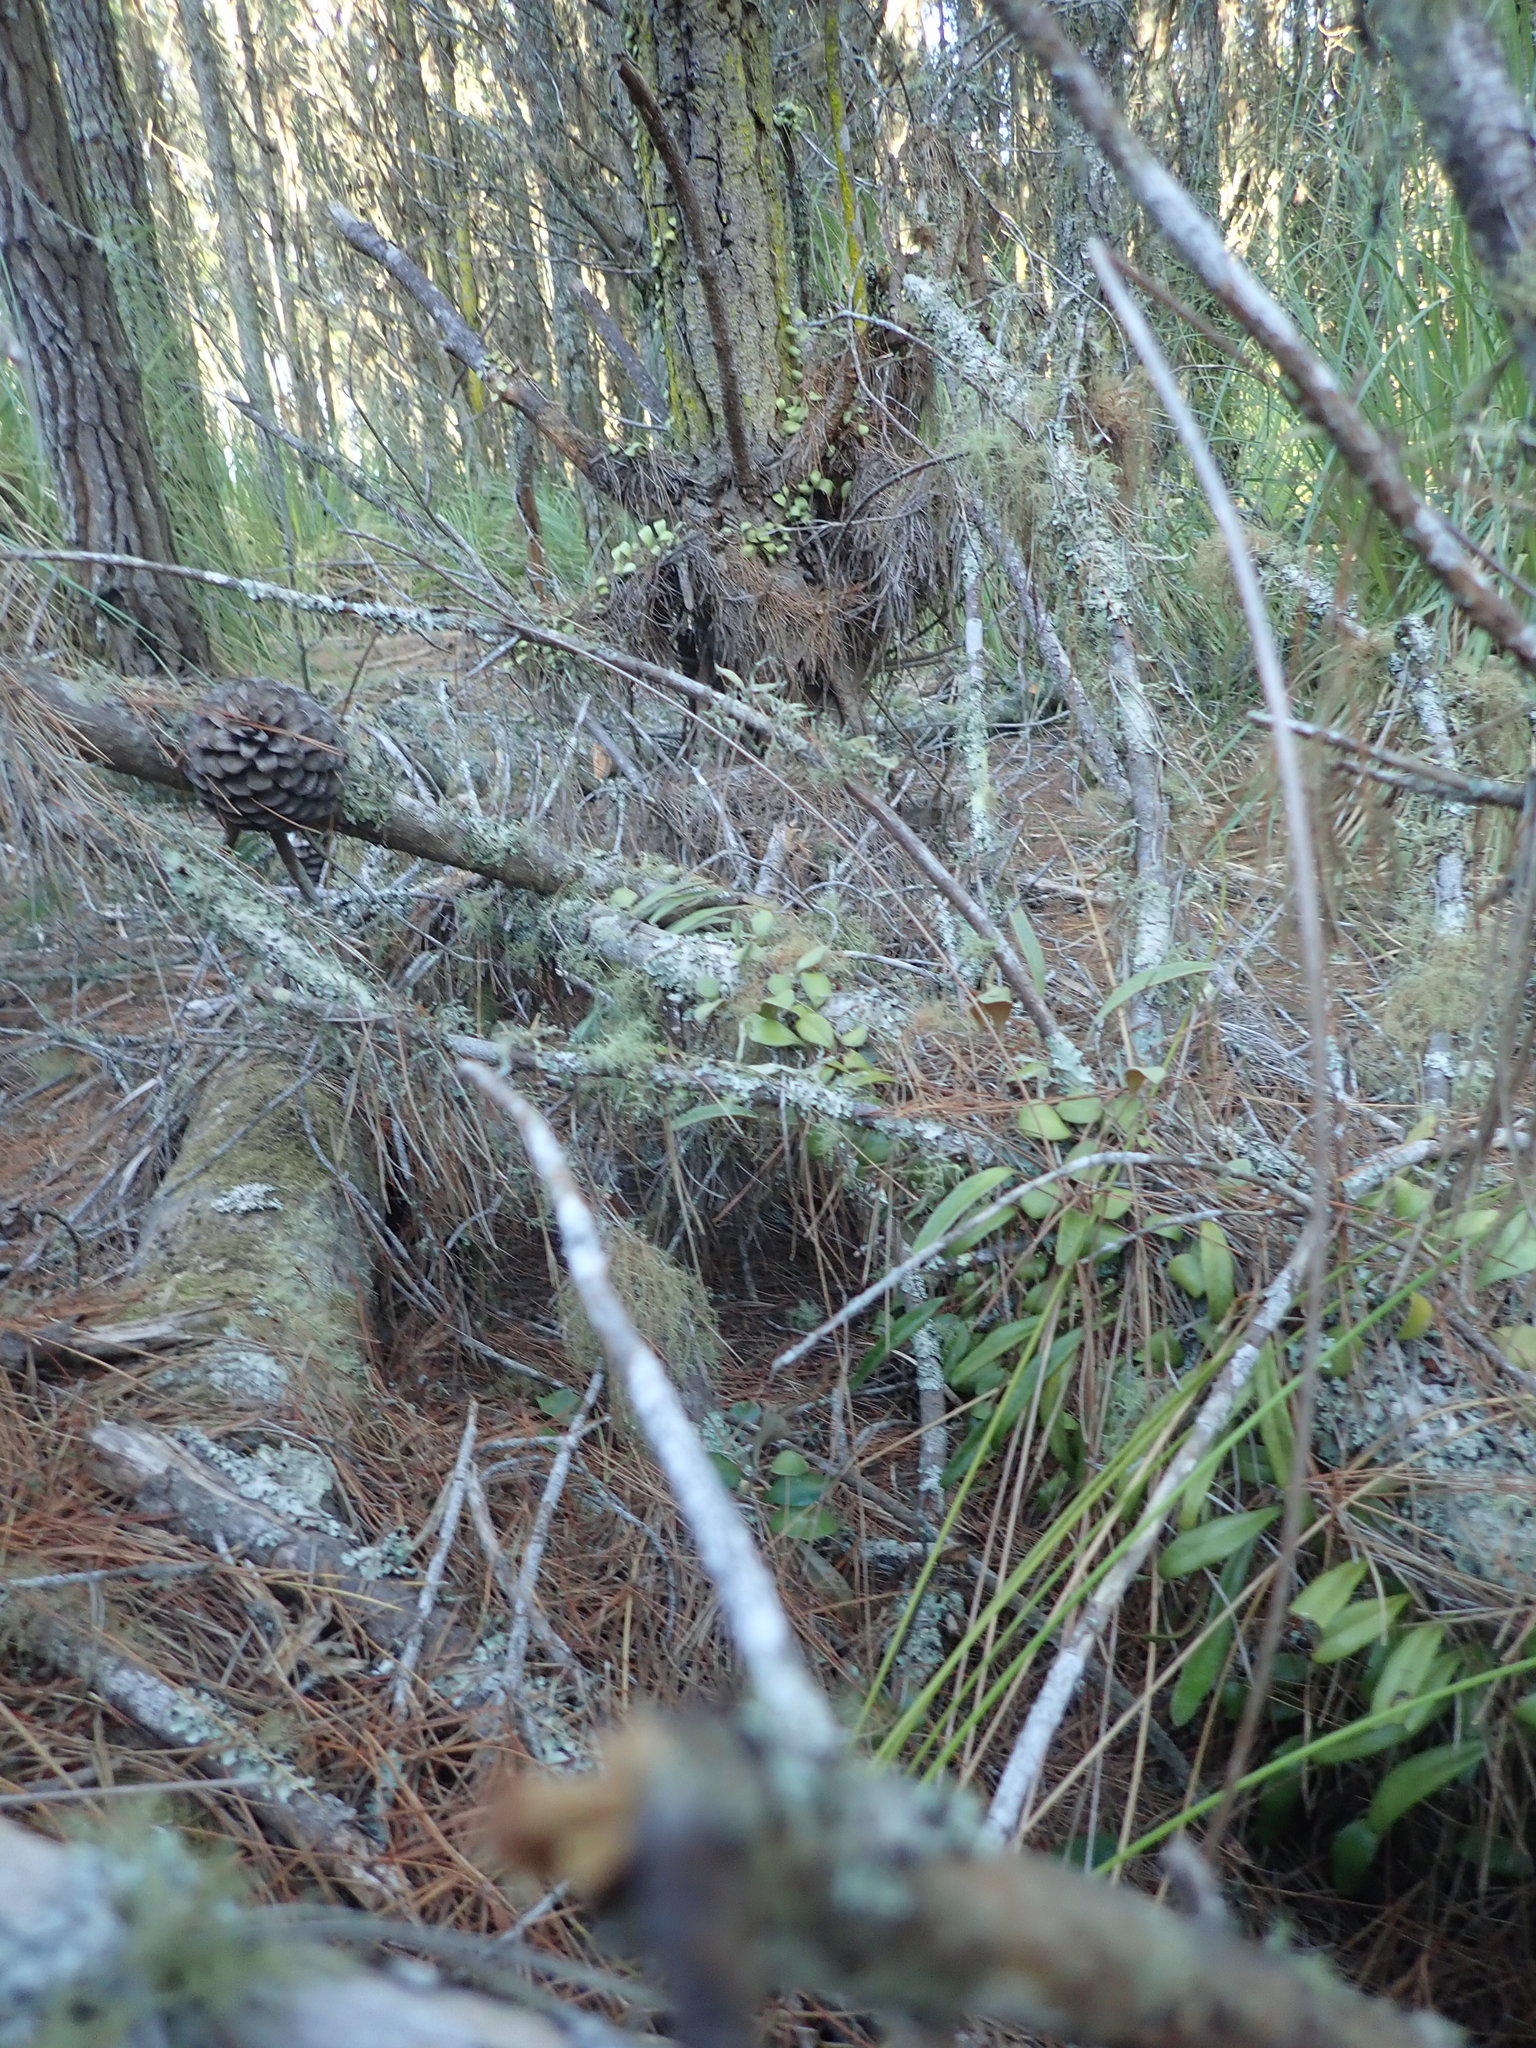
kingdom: Plantae
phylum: Tracheophyta
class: Polypodiopsida
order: Polypodiales
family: Polypodiaceae
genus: Pyrrosia
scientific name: Pyrrosia eleagnifolia
